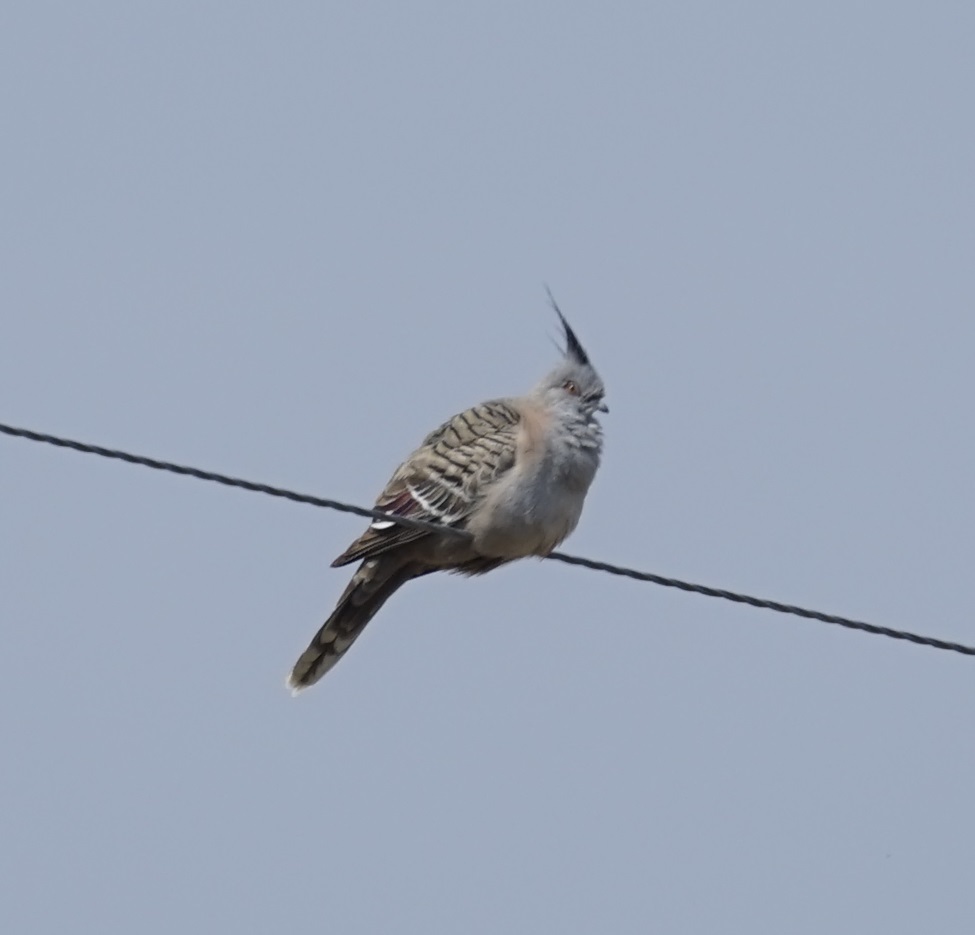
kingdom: Animalia
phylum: Chordata
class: Aves
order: Columbiformes
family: Columbidae
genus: Ocyphaps
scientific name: Ocyphaps lophotes
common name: Crested pigeon
